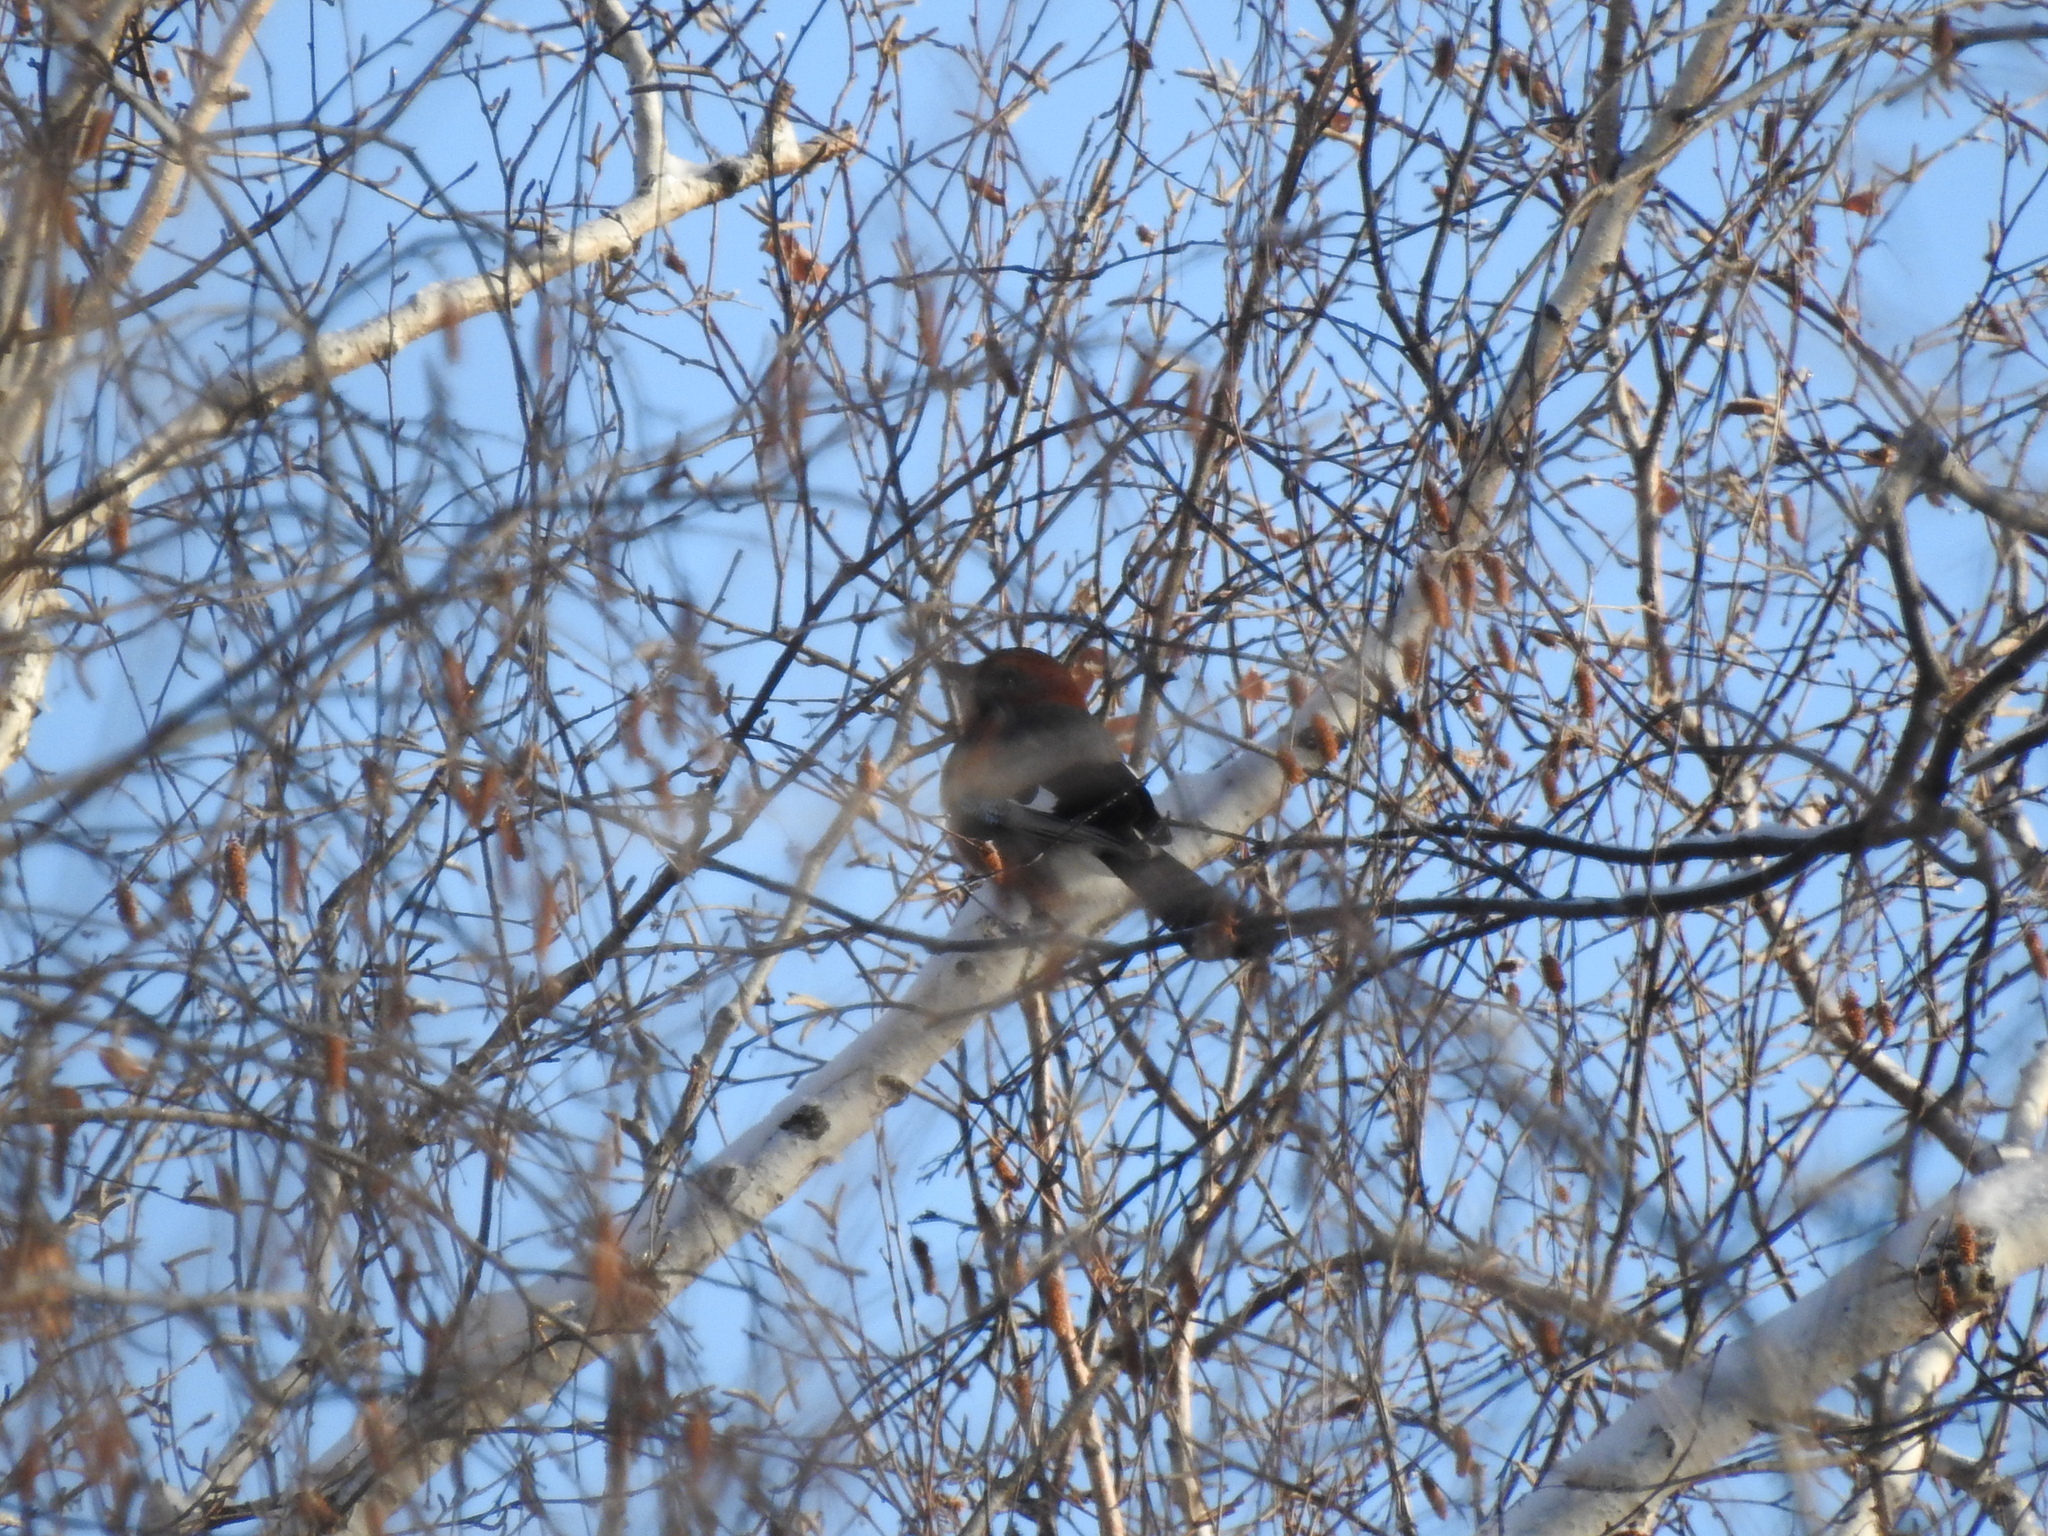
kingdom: Animalia
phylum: Chordata
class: Aves
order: Passeriformes
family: Corvidae
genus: Garrulus
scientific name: Garrulus glandarius
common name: Eurasian jay
